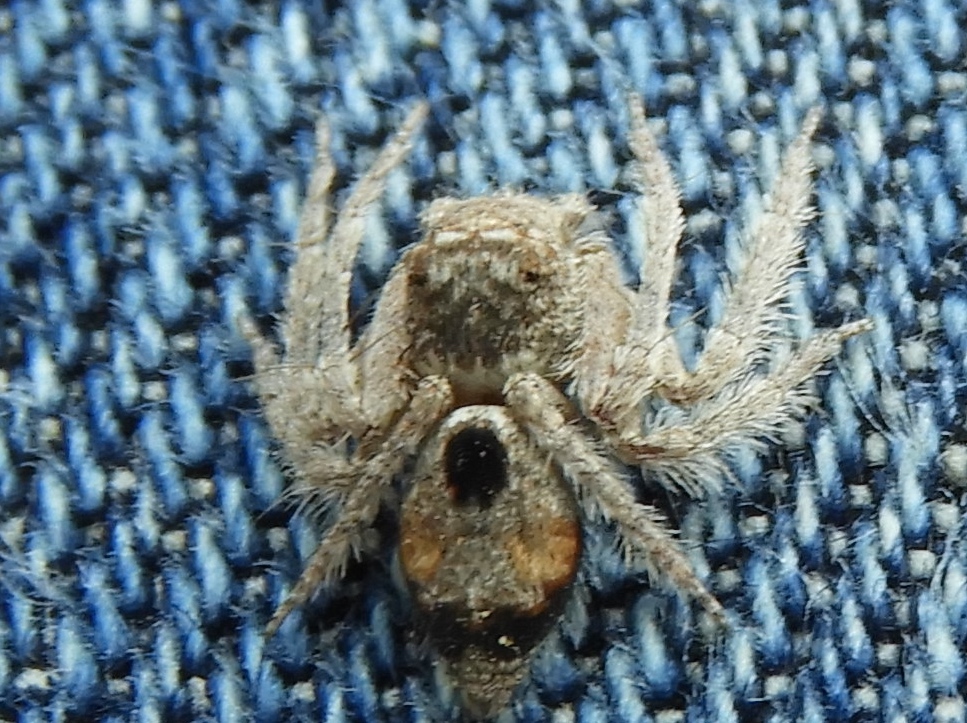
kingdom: Animalia
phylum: Arthropoda
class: Arachnida
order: Araneae
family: Oxyopidae
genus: Hamataliwa
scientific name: Hamataliwa
